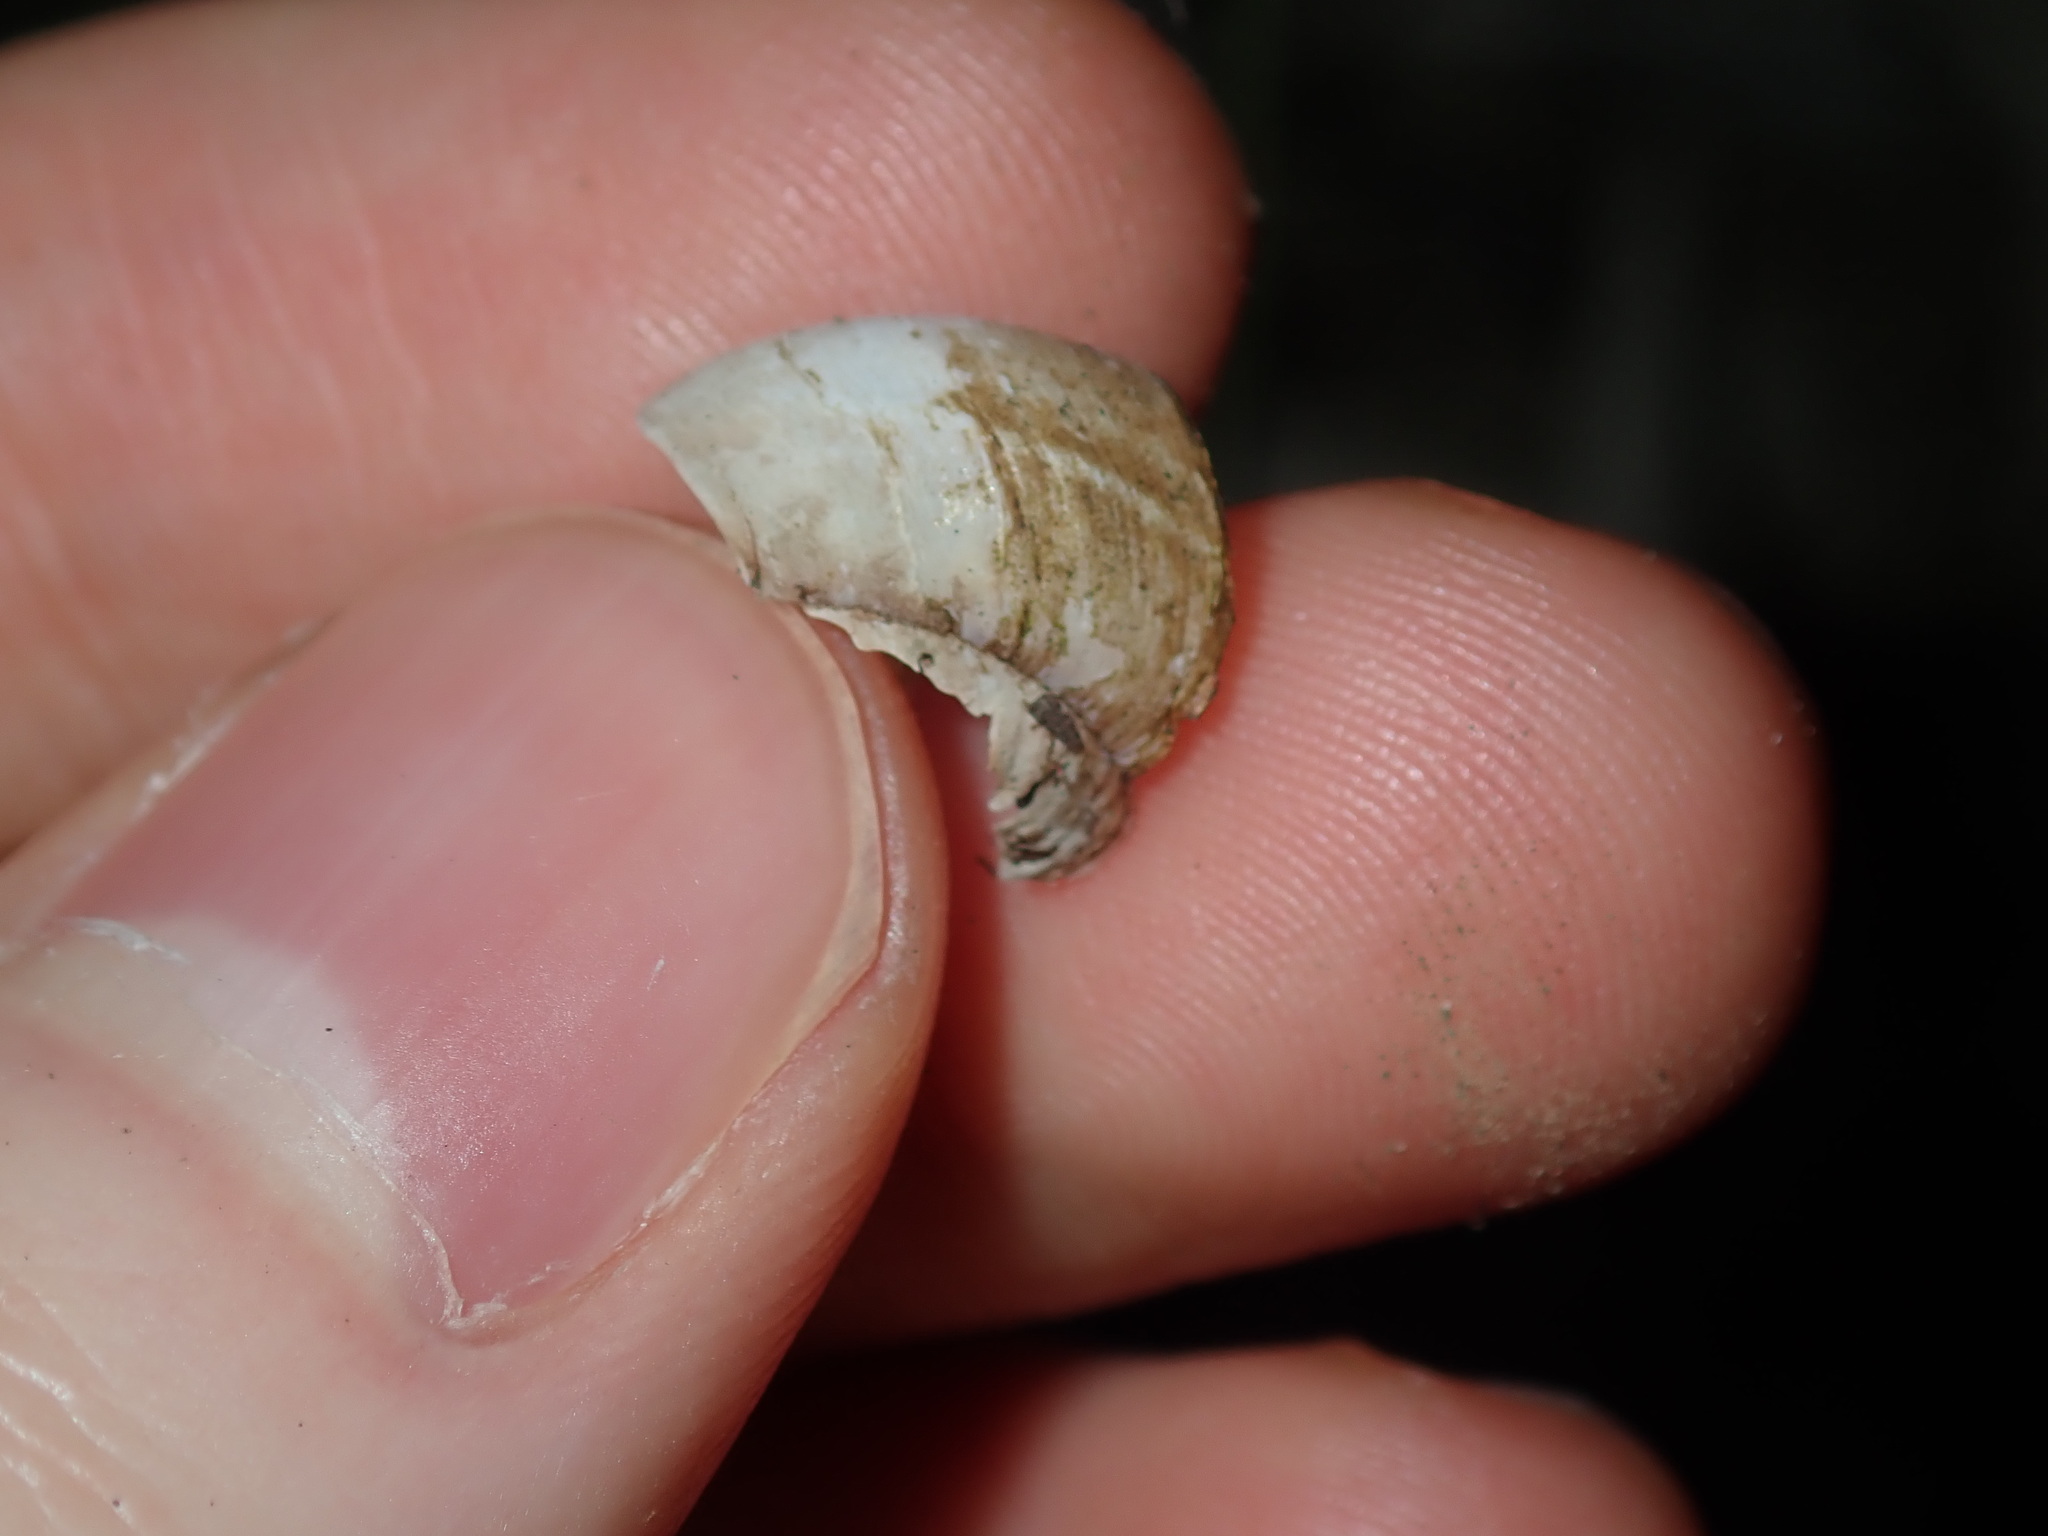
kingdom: Animalia
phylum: Mollusca
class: Gastropoda
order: Stylommatophora
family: Camaenidae
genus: Sauroconcha
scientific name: Sauroconcha sheai
